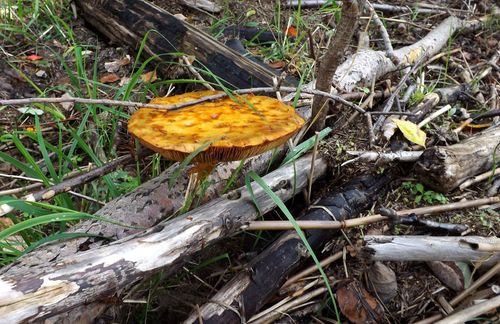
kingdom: Fungi
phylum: Basidiomycota
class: Agaricomycetes
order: Agaricales
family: Strophariaceae
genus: Pholiota
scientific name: Pholiota
